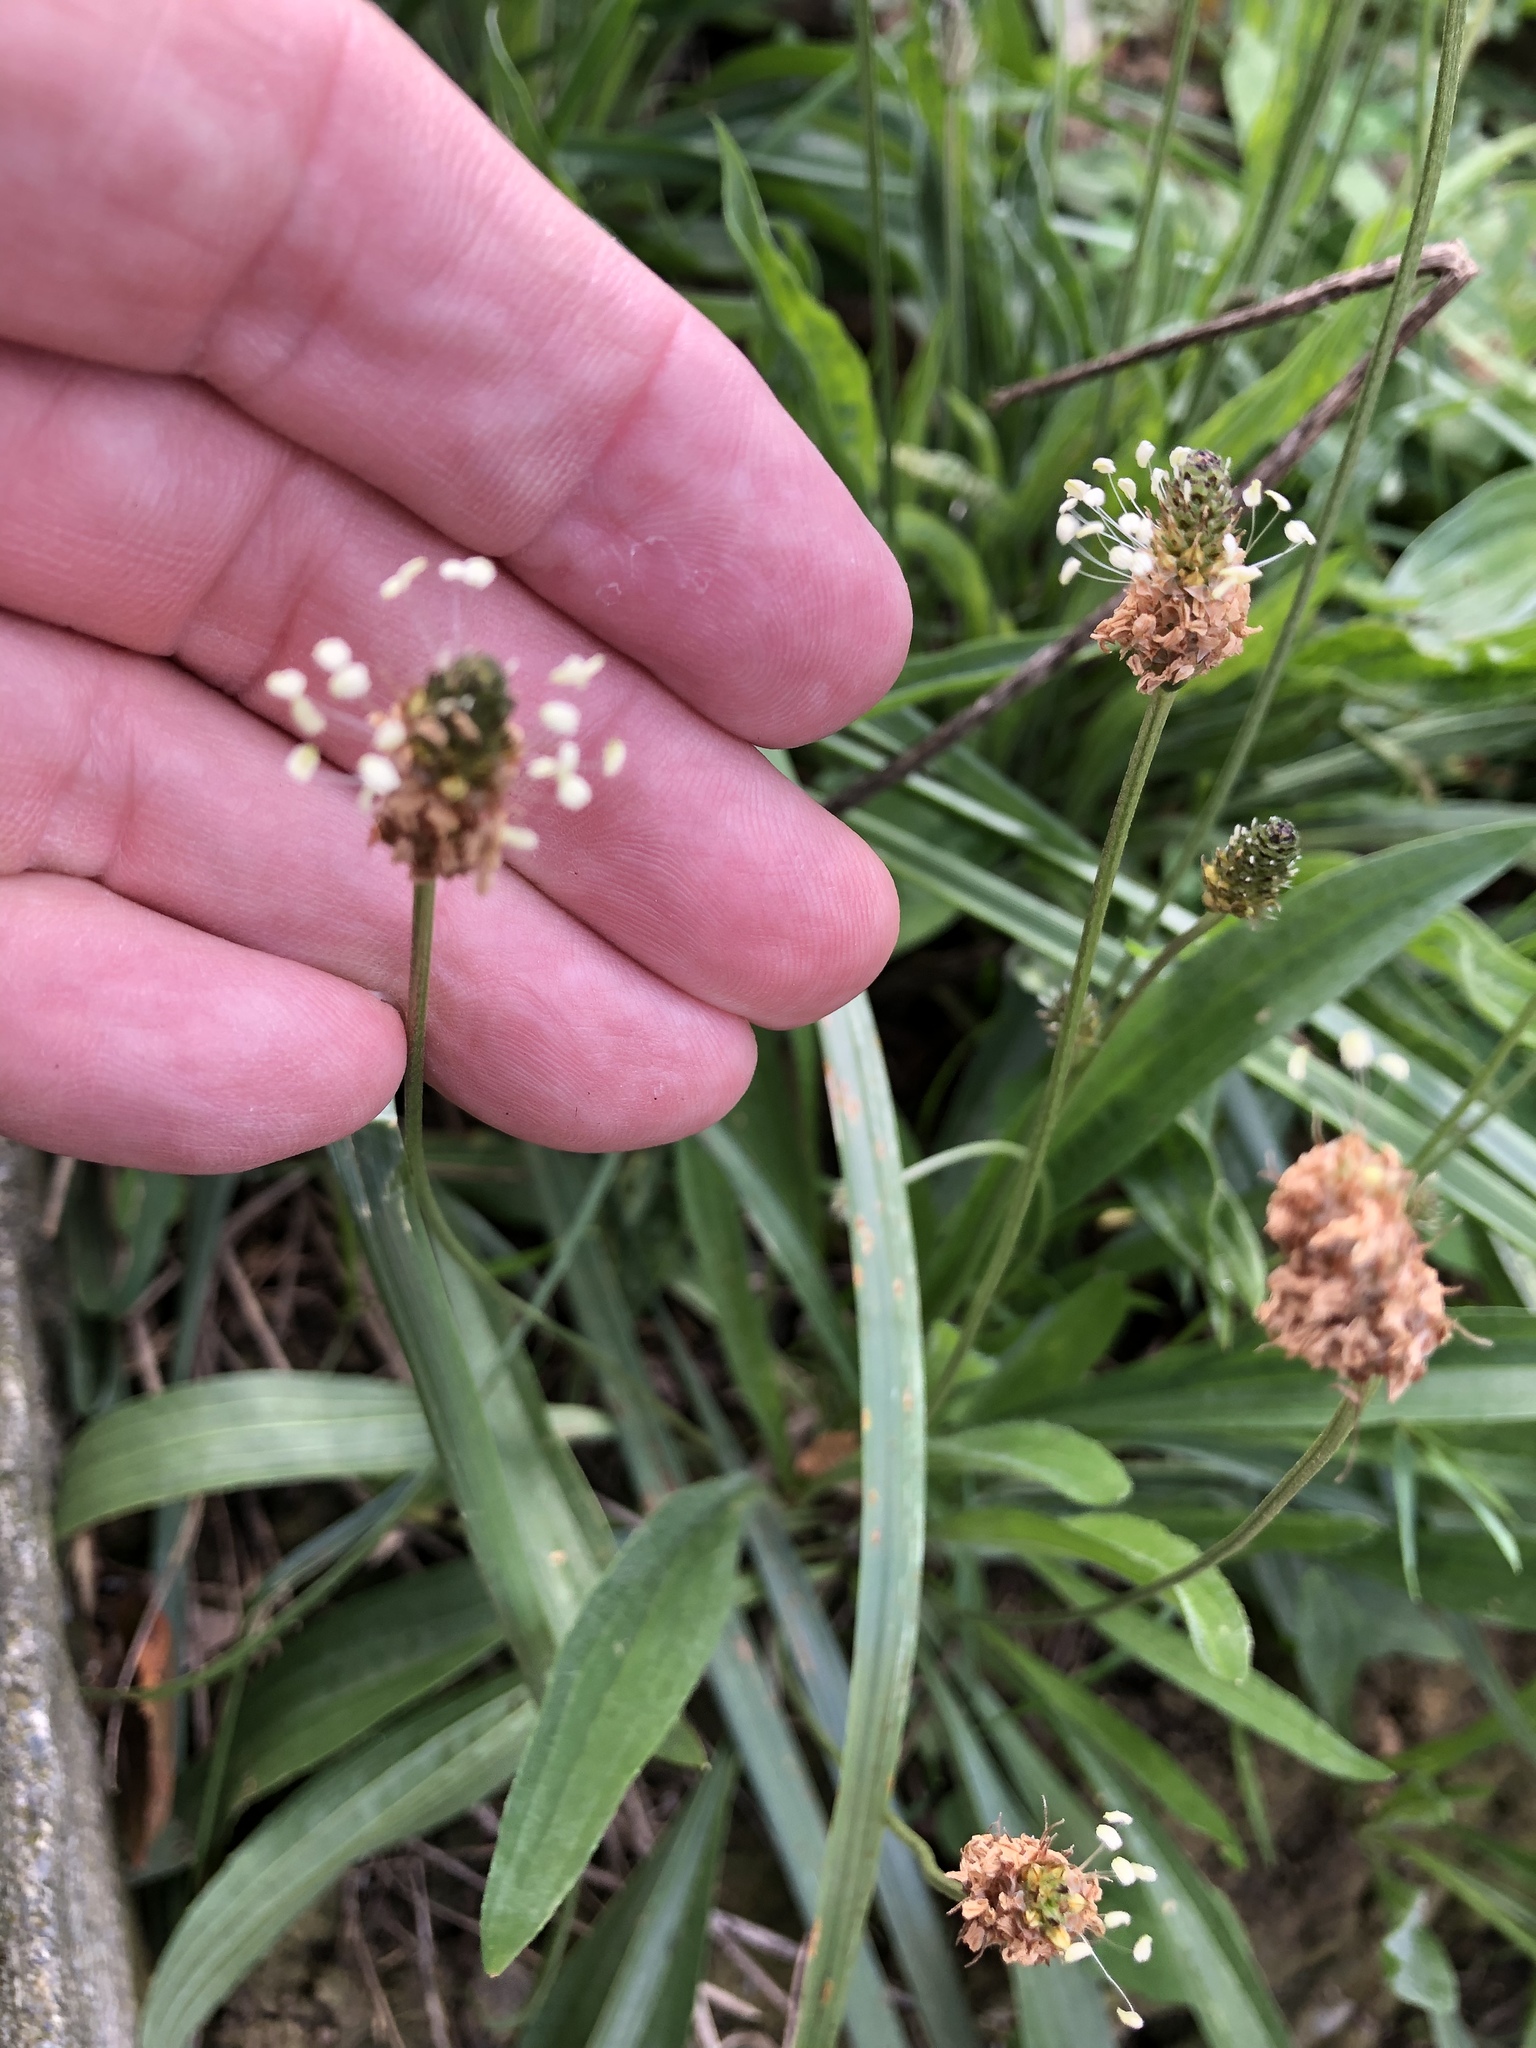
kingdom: Plantae
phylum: Tracheophyta
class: Magnoliopsida
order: Lamiales
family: Plantaginaceae
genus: Plantago
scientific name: Plantago lanceolata
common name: Ribwort plantain
